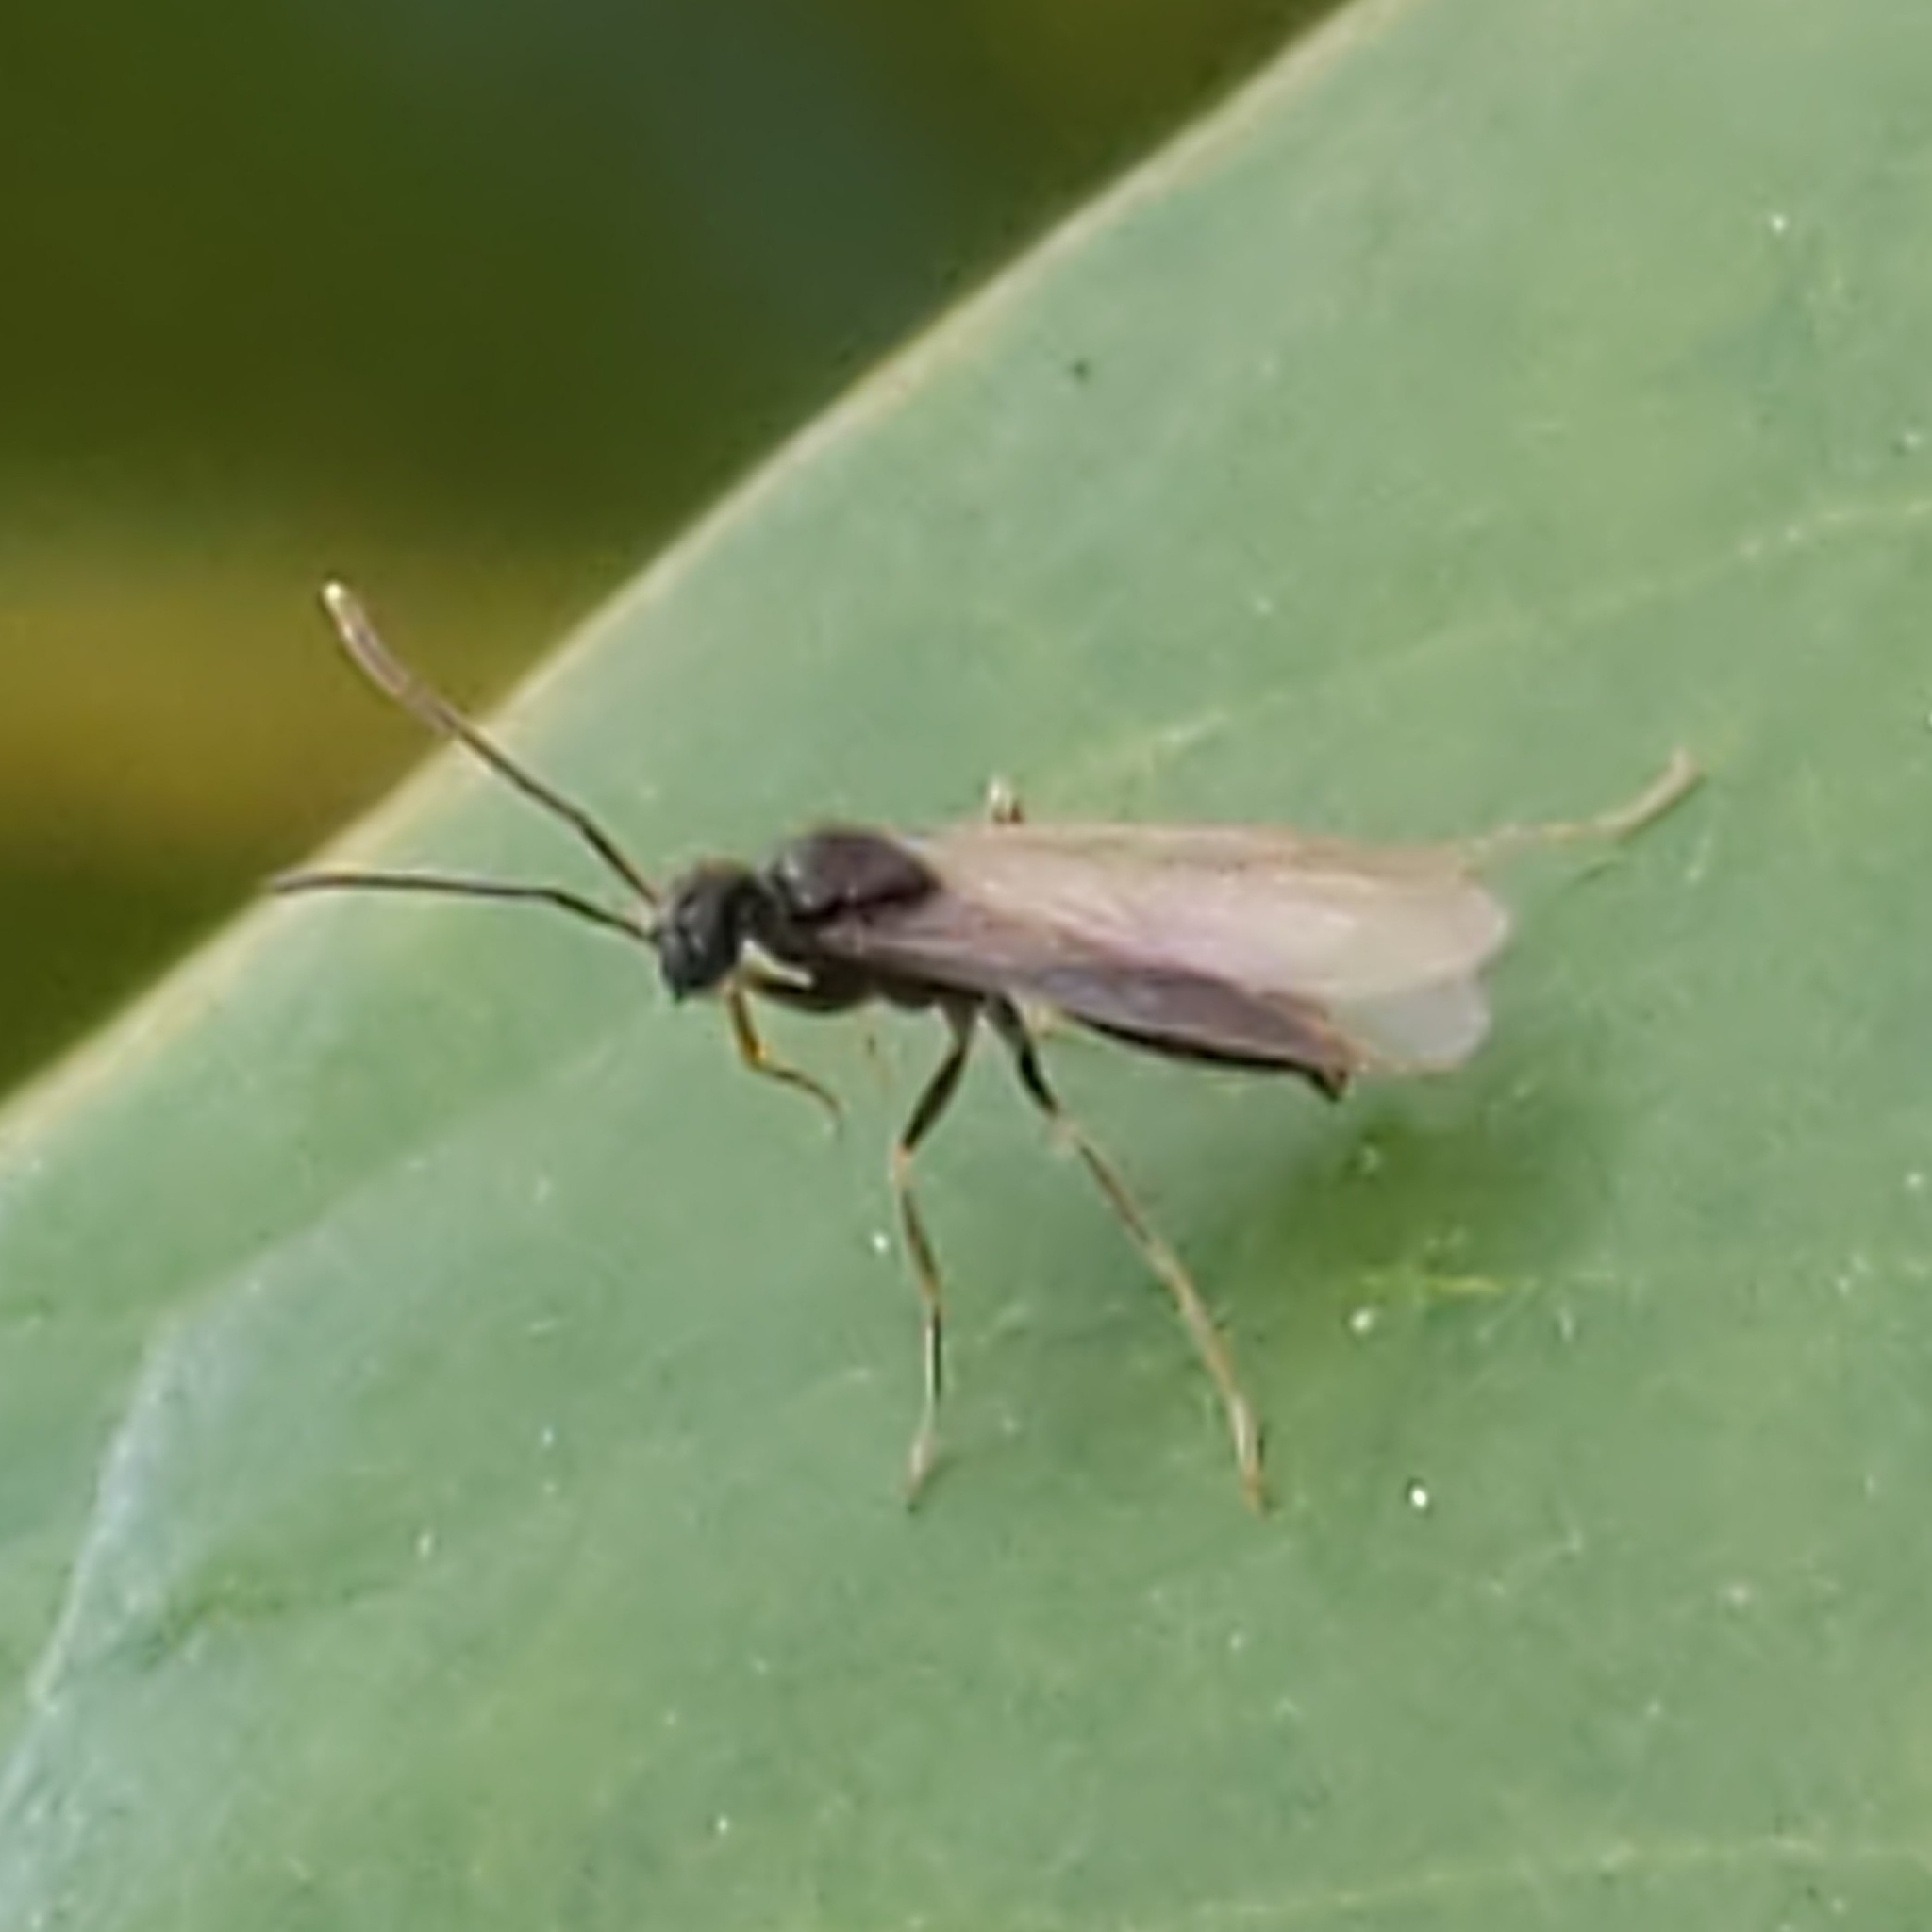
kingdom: Animalia
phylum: Arthropoda
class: Insecta
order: Hymenoptera
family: Formicidae
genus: Prenolepis
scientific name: Prenolepis imparis
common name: Small honey ant
